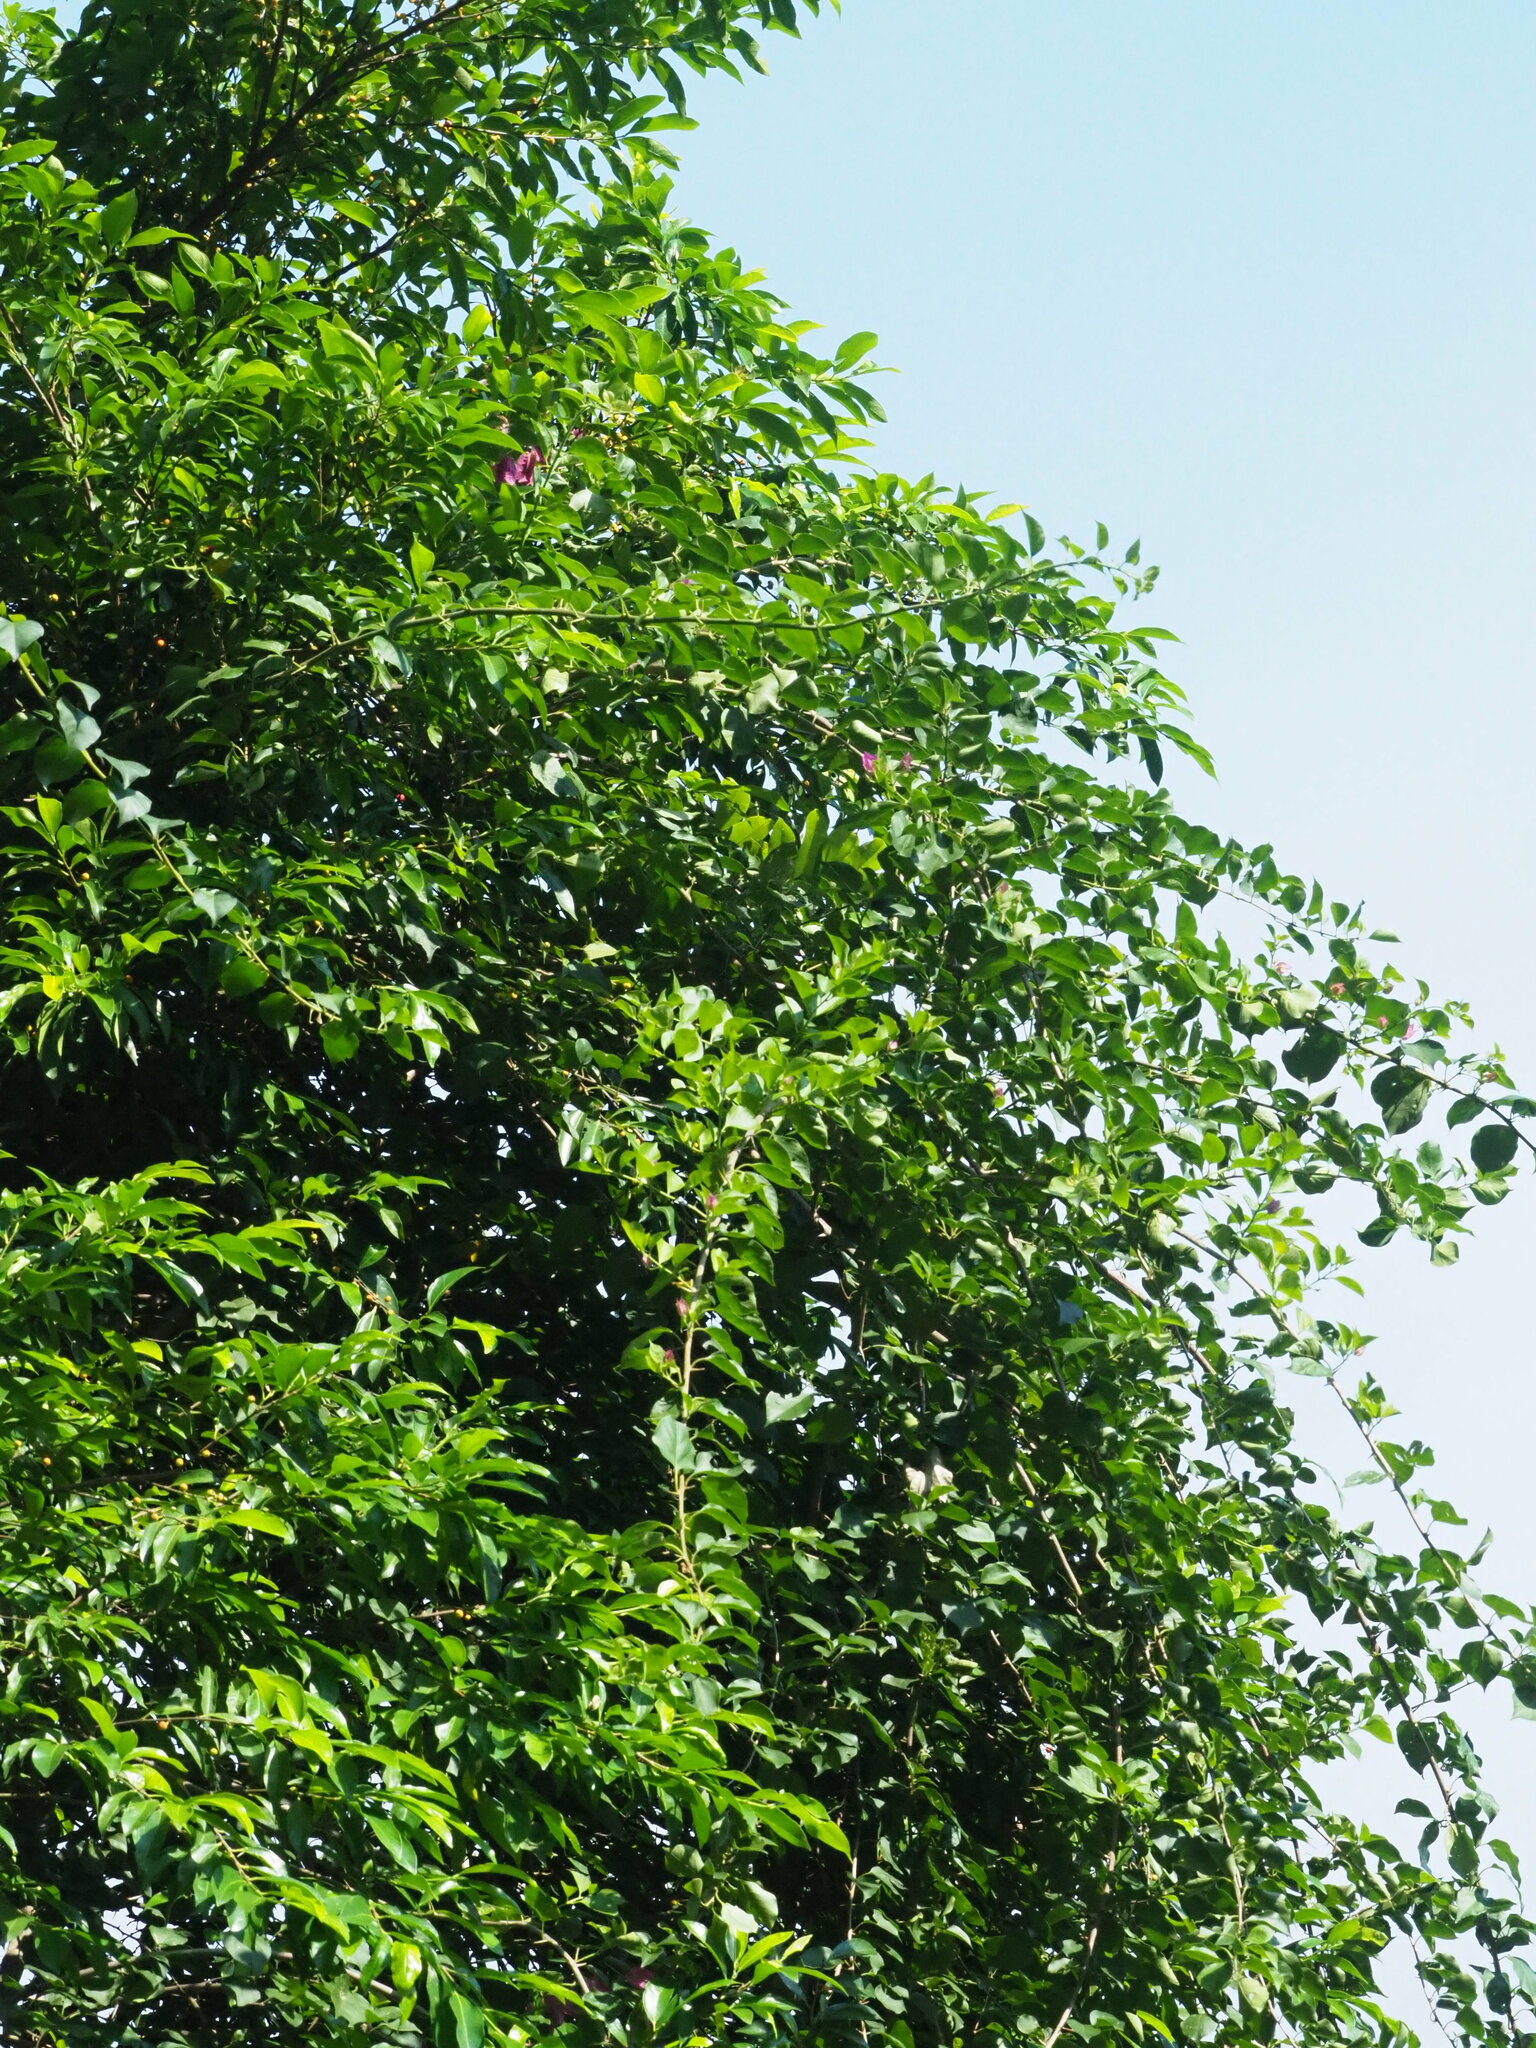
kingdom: Plantae
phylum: Tracheophyta
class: Magnoliopsida
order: Caryophyllales
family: Nyctaginaceae
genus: Bougainvillea
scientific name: Bougainvillea spectabilis
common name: Great bougainvillea
